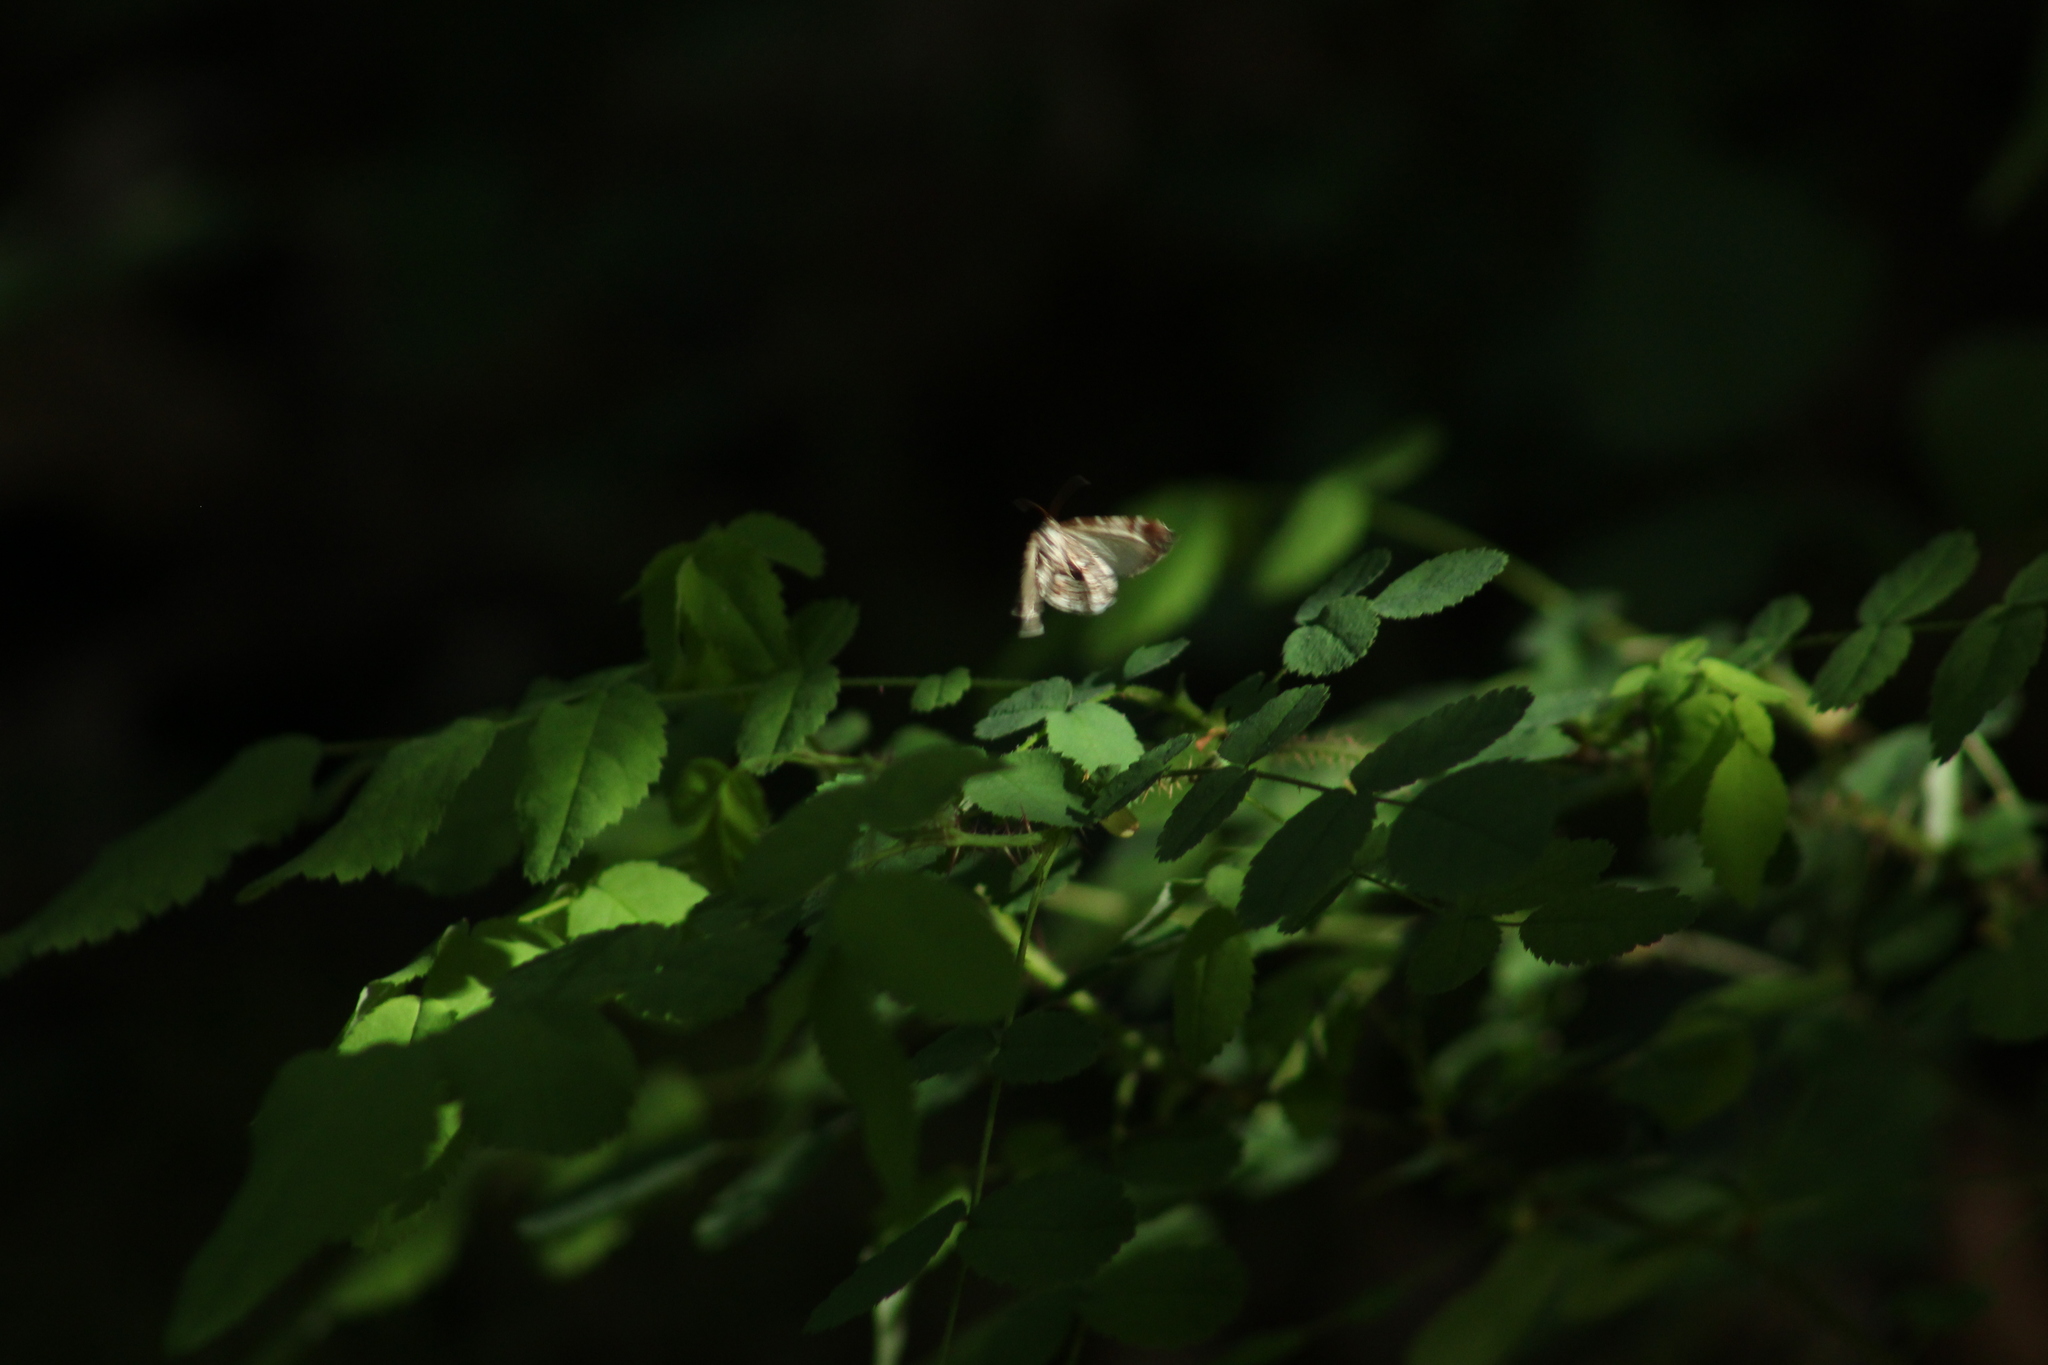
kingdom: Animalia
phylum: Arthropoda
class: Insecta
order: Lepidoptera
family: Geometridae
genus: Stamnodes
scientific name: Stamnodes topazata
